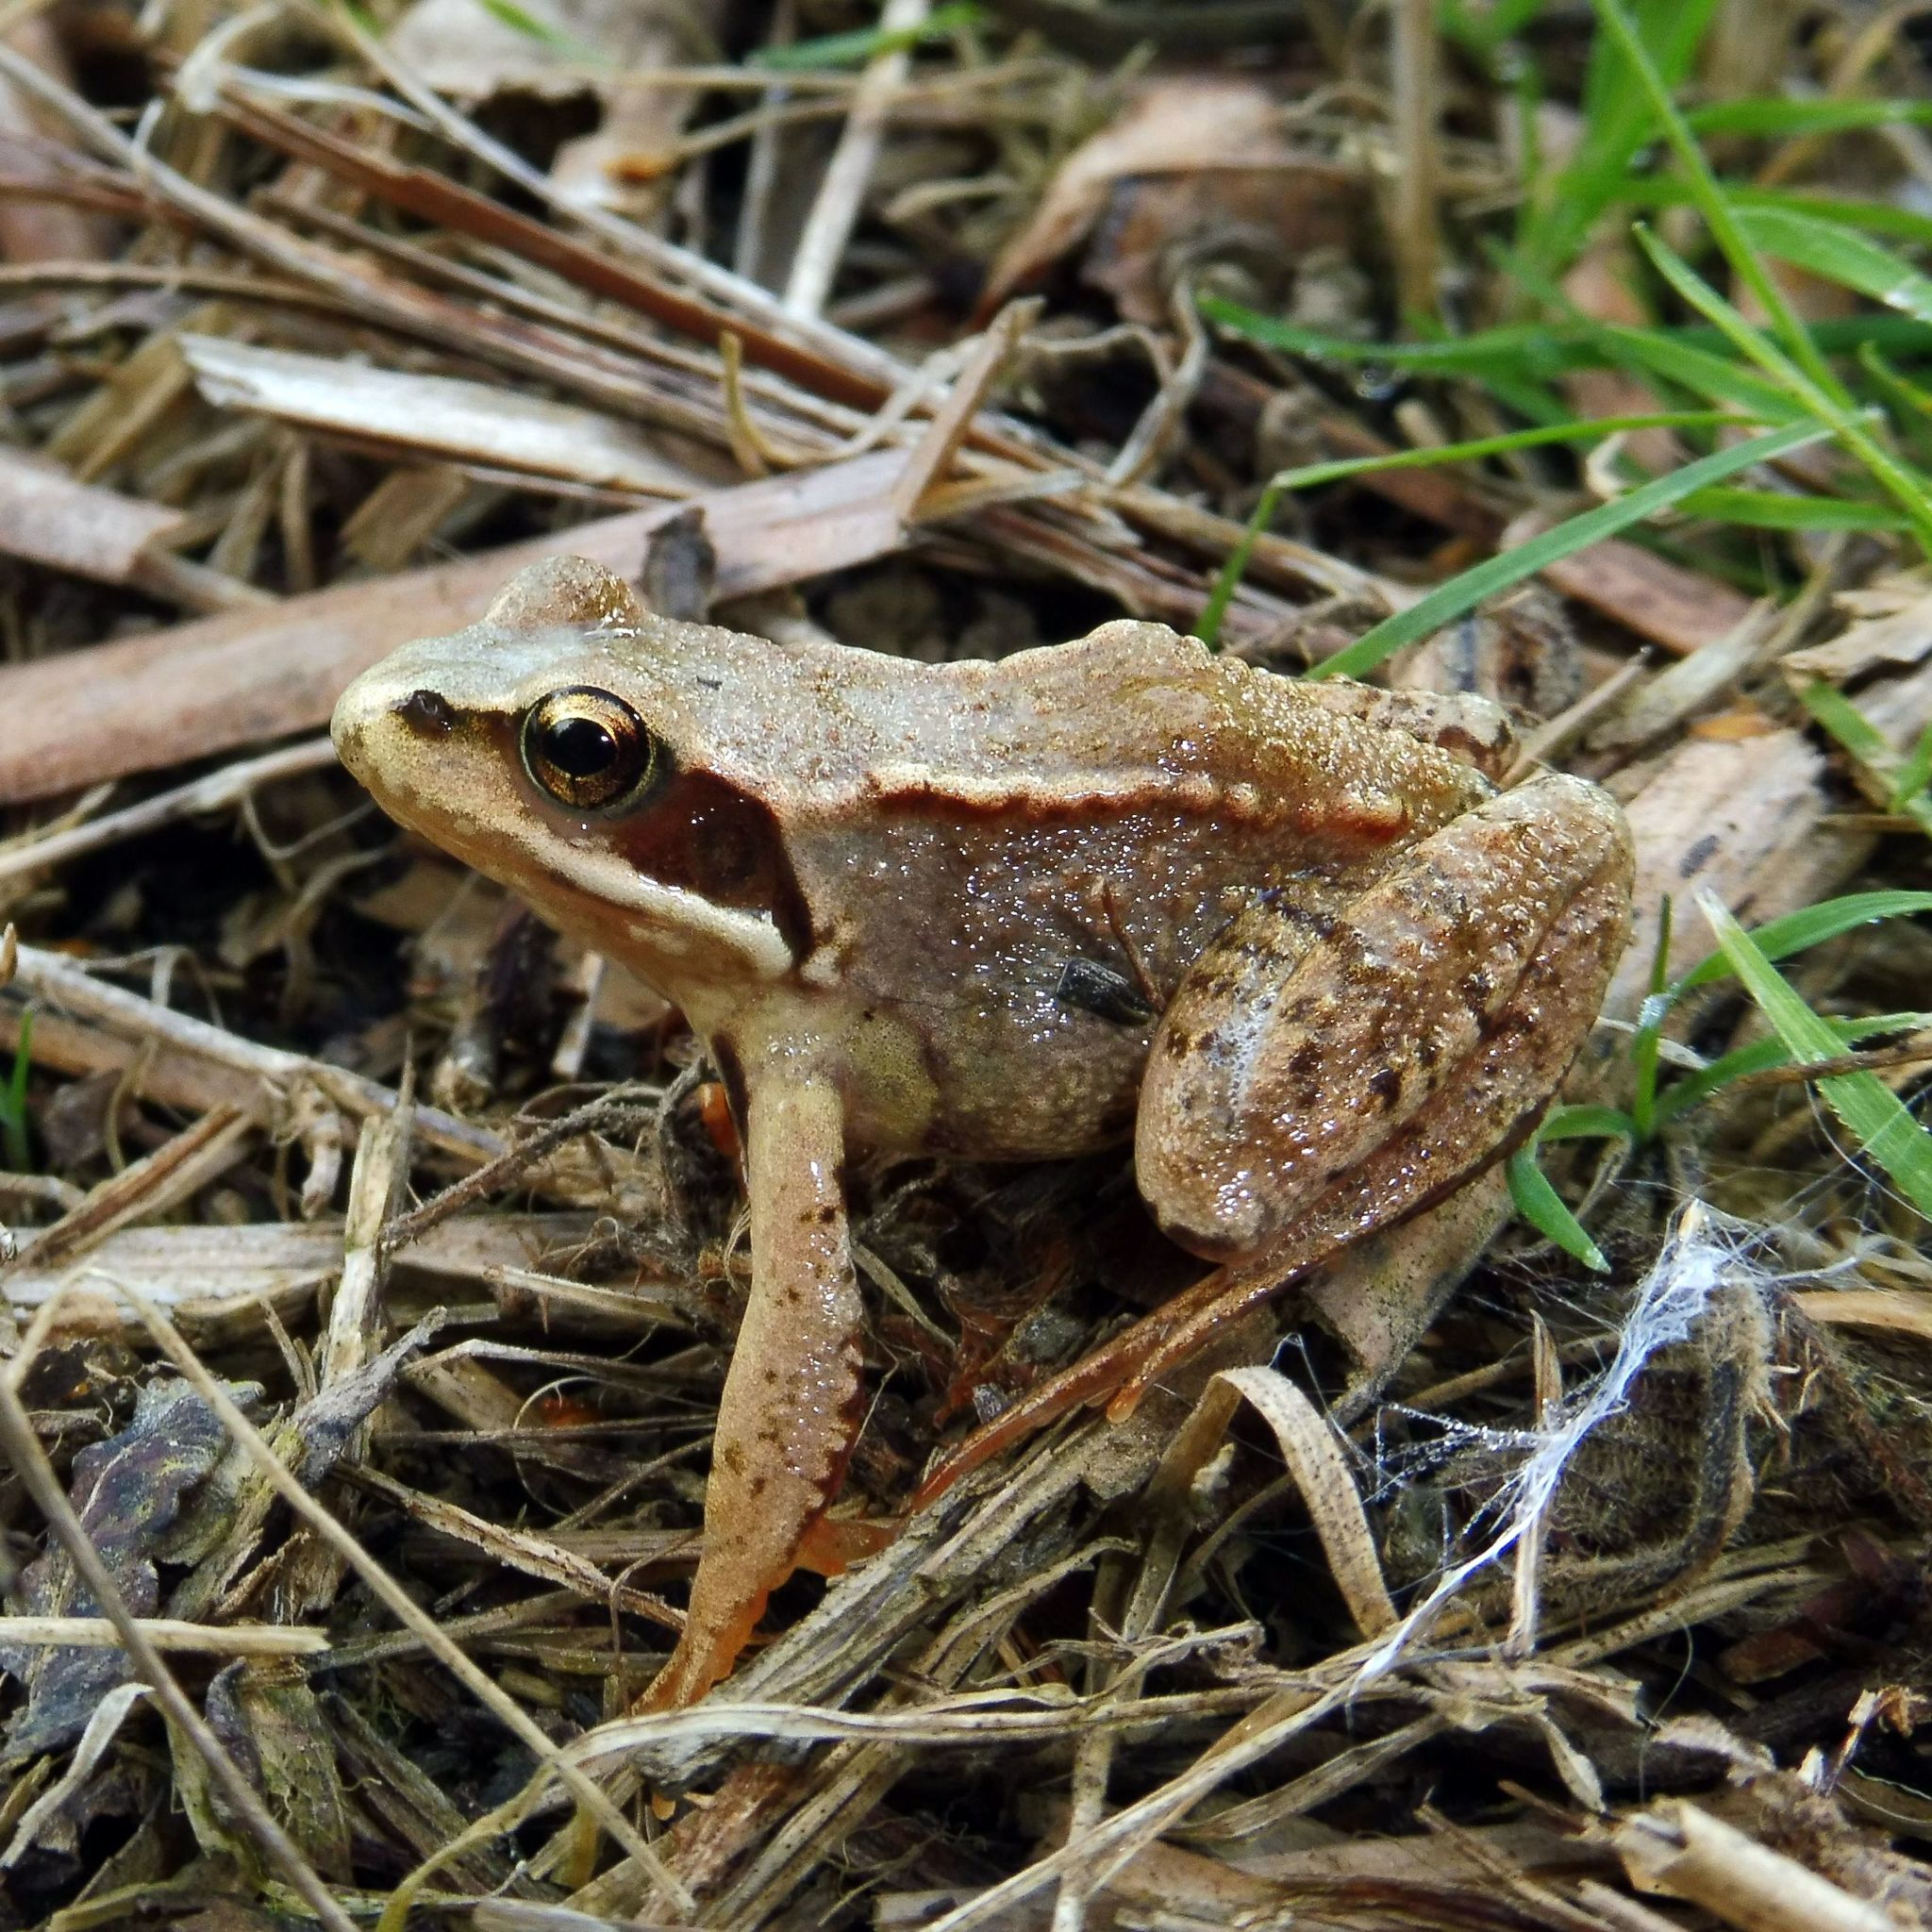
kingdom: Animalia
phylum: Chordata
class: Amphibia
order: Anura
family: Ranidae
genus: Rana
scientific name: Rana temporaria
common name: Common frog
